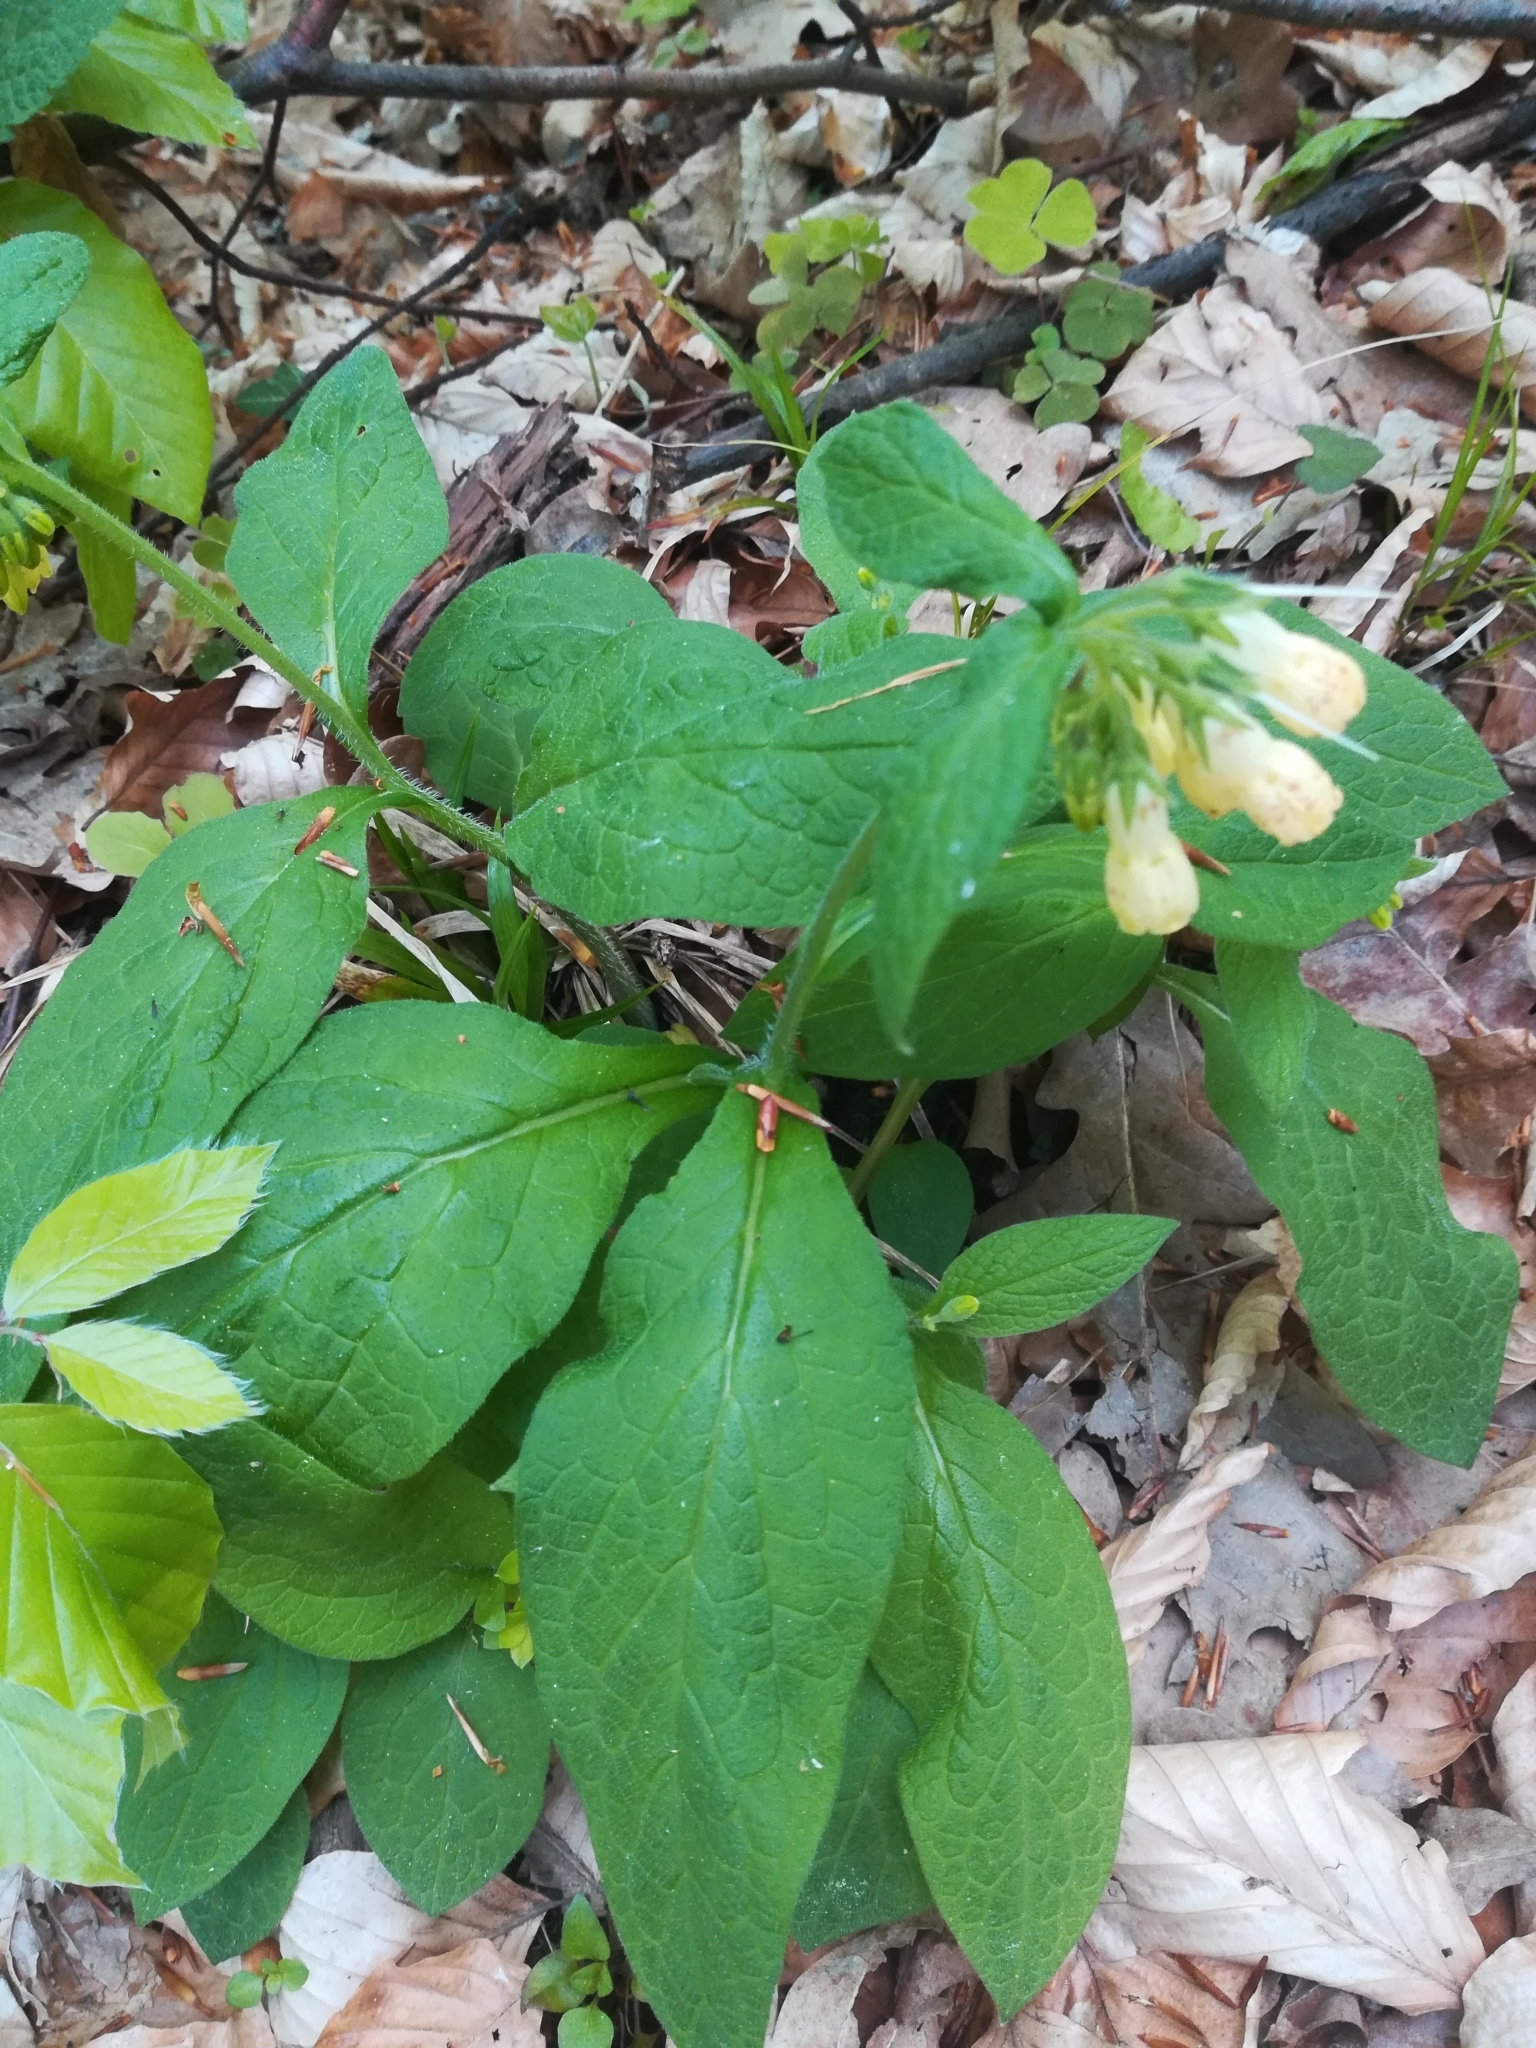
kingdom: Plantae
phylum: Tracheophyta
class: Magnoliopsida
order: Boraginales
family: Boraginaceae
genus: Symphytum
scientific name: Symphytum tuberosum
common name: Tuberous comfrey
